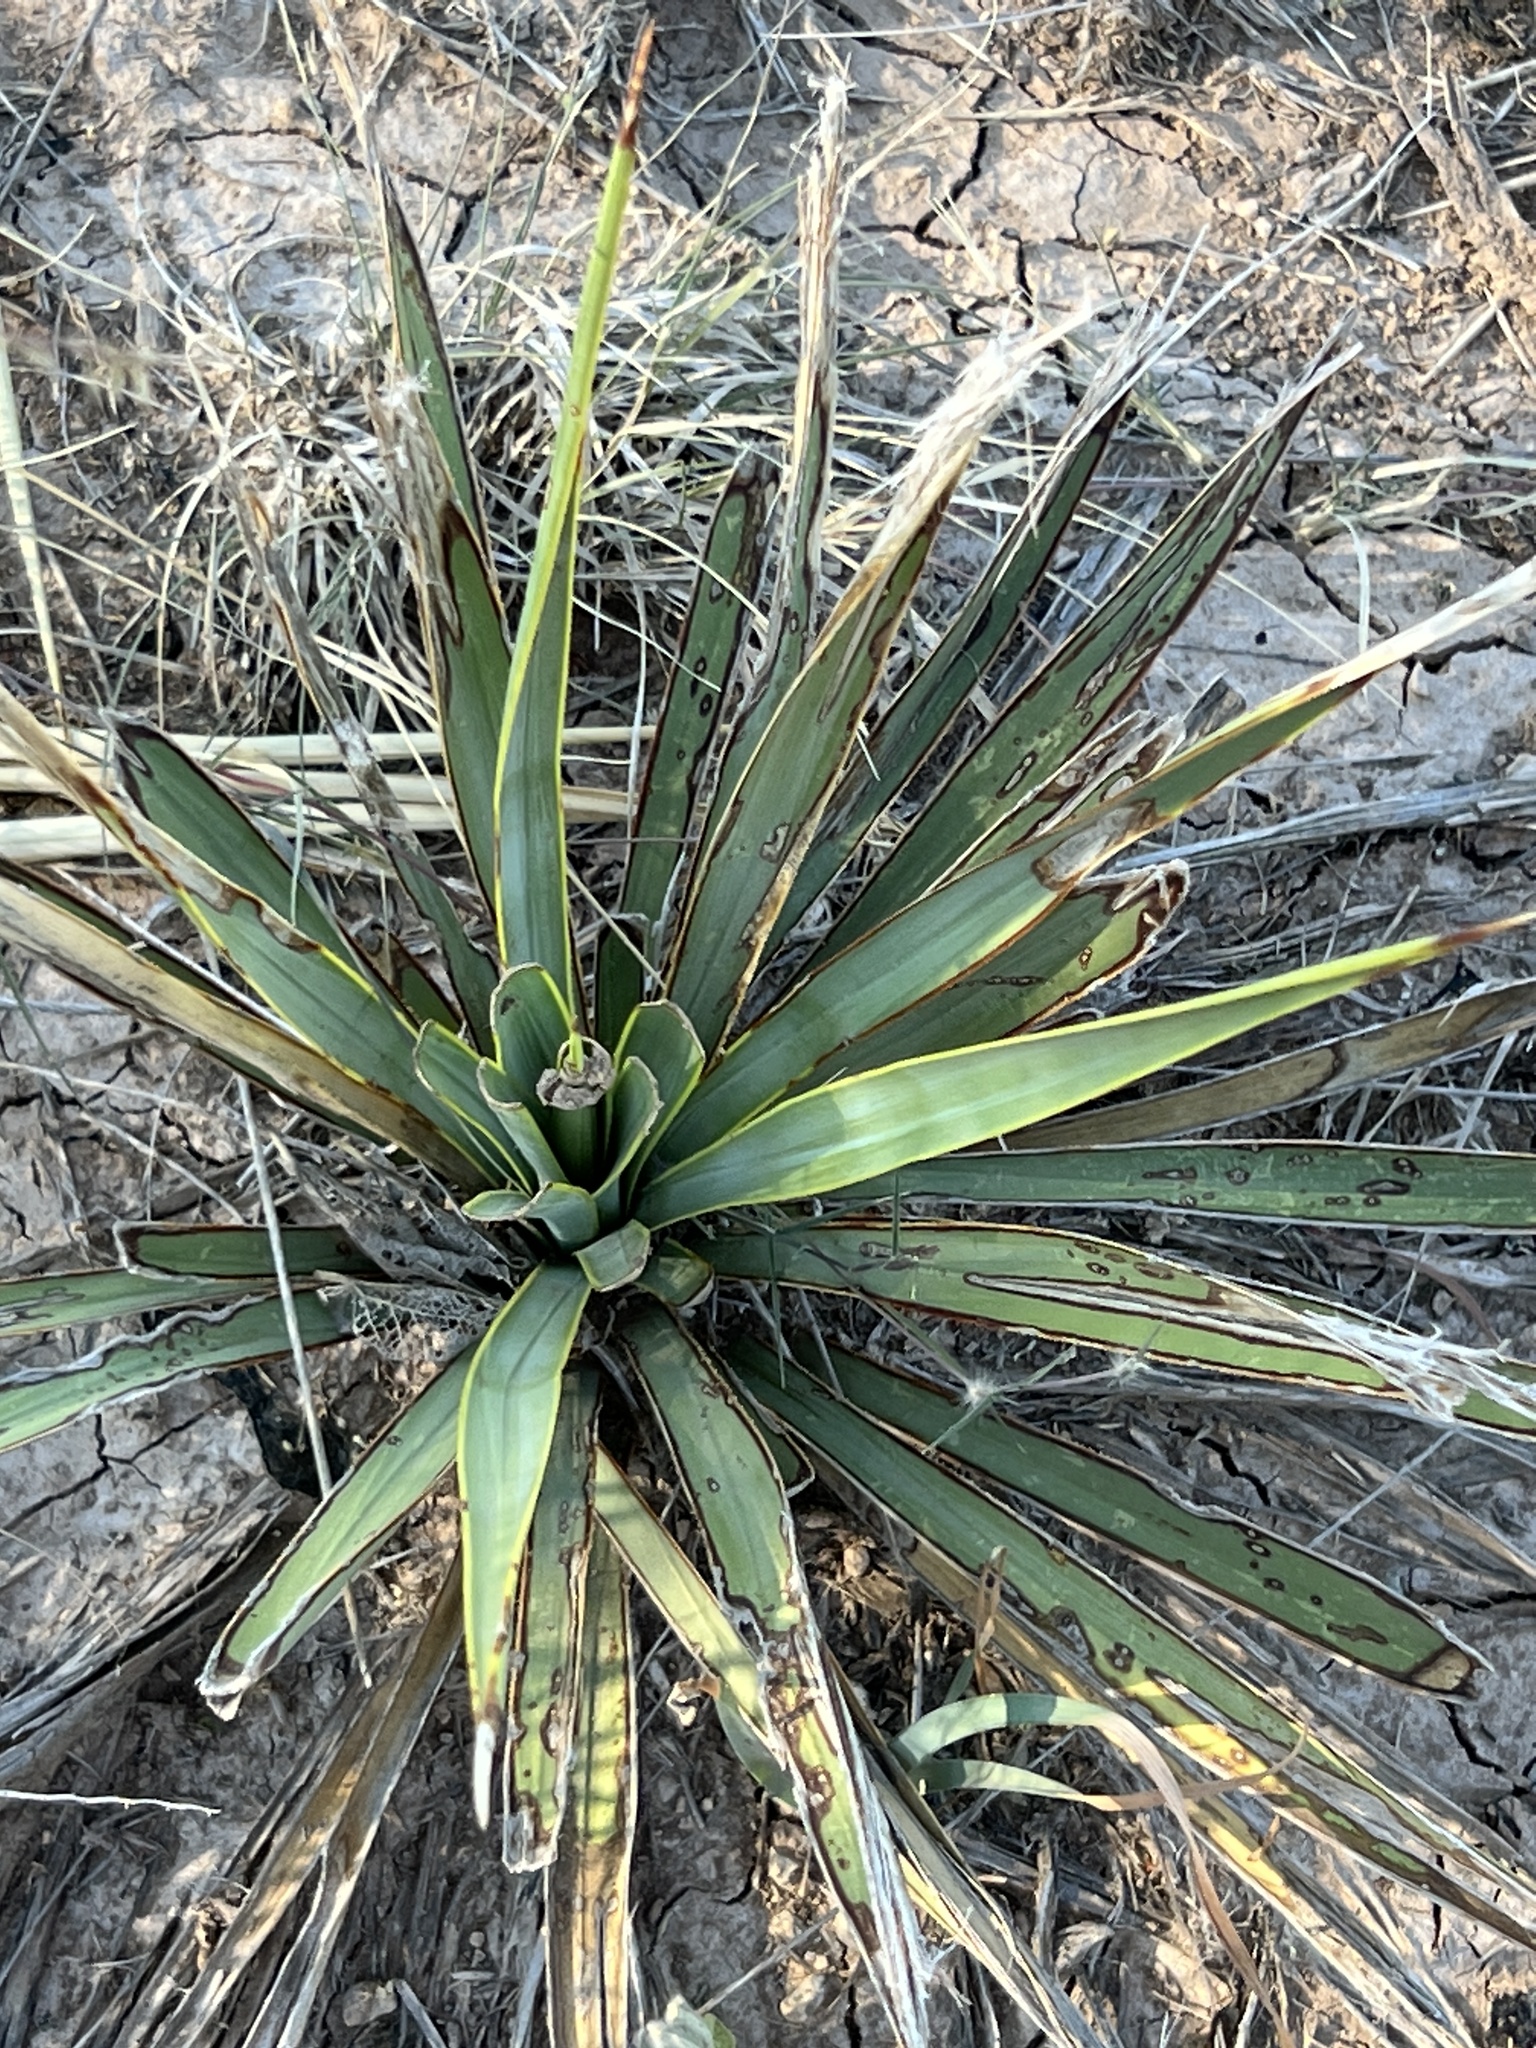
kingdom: Plantae
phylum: Tracheophyta
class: Liliopsida
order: Asparagales
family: Asparagaceae
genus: Yucca
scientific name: Yucca thompsoniana
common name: Trans-pecos yucca
